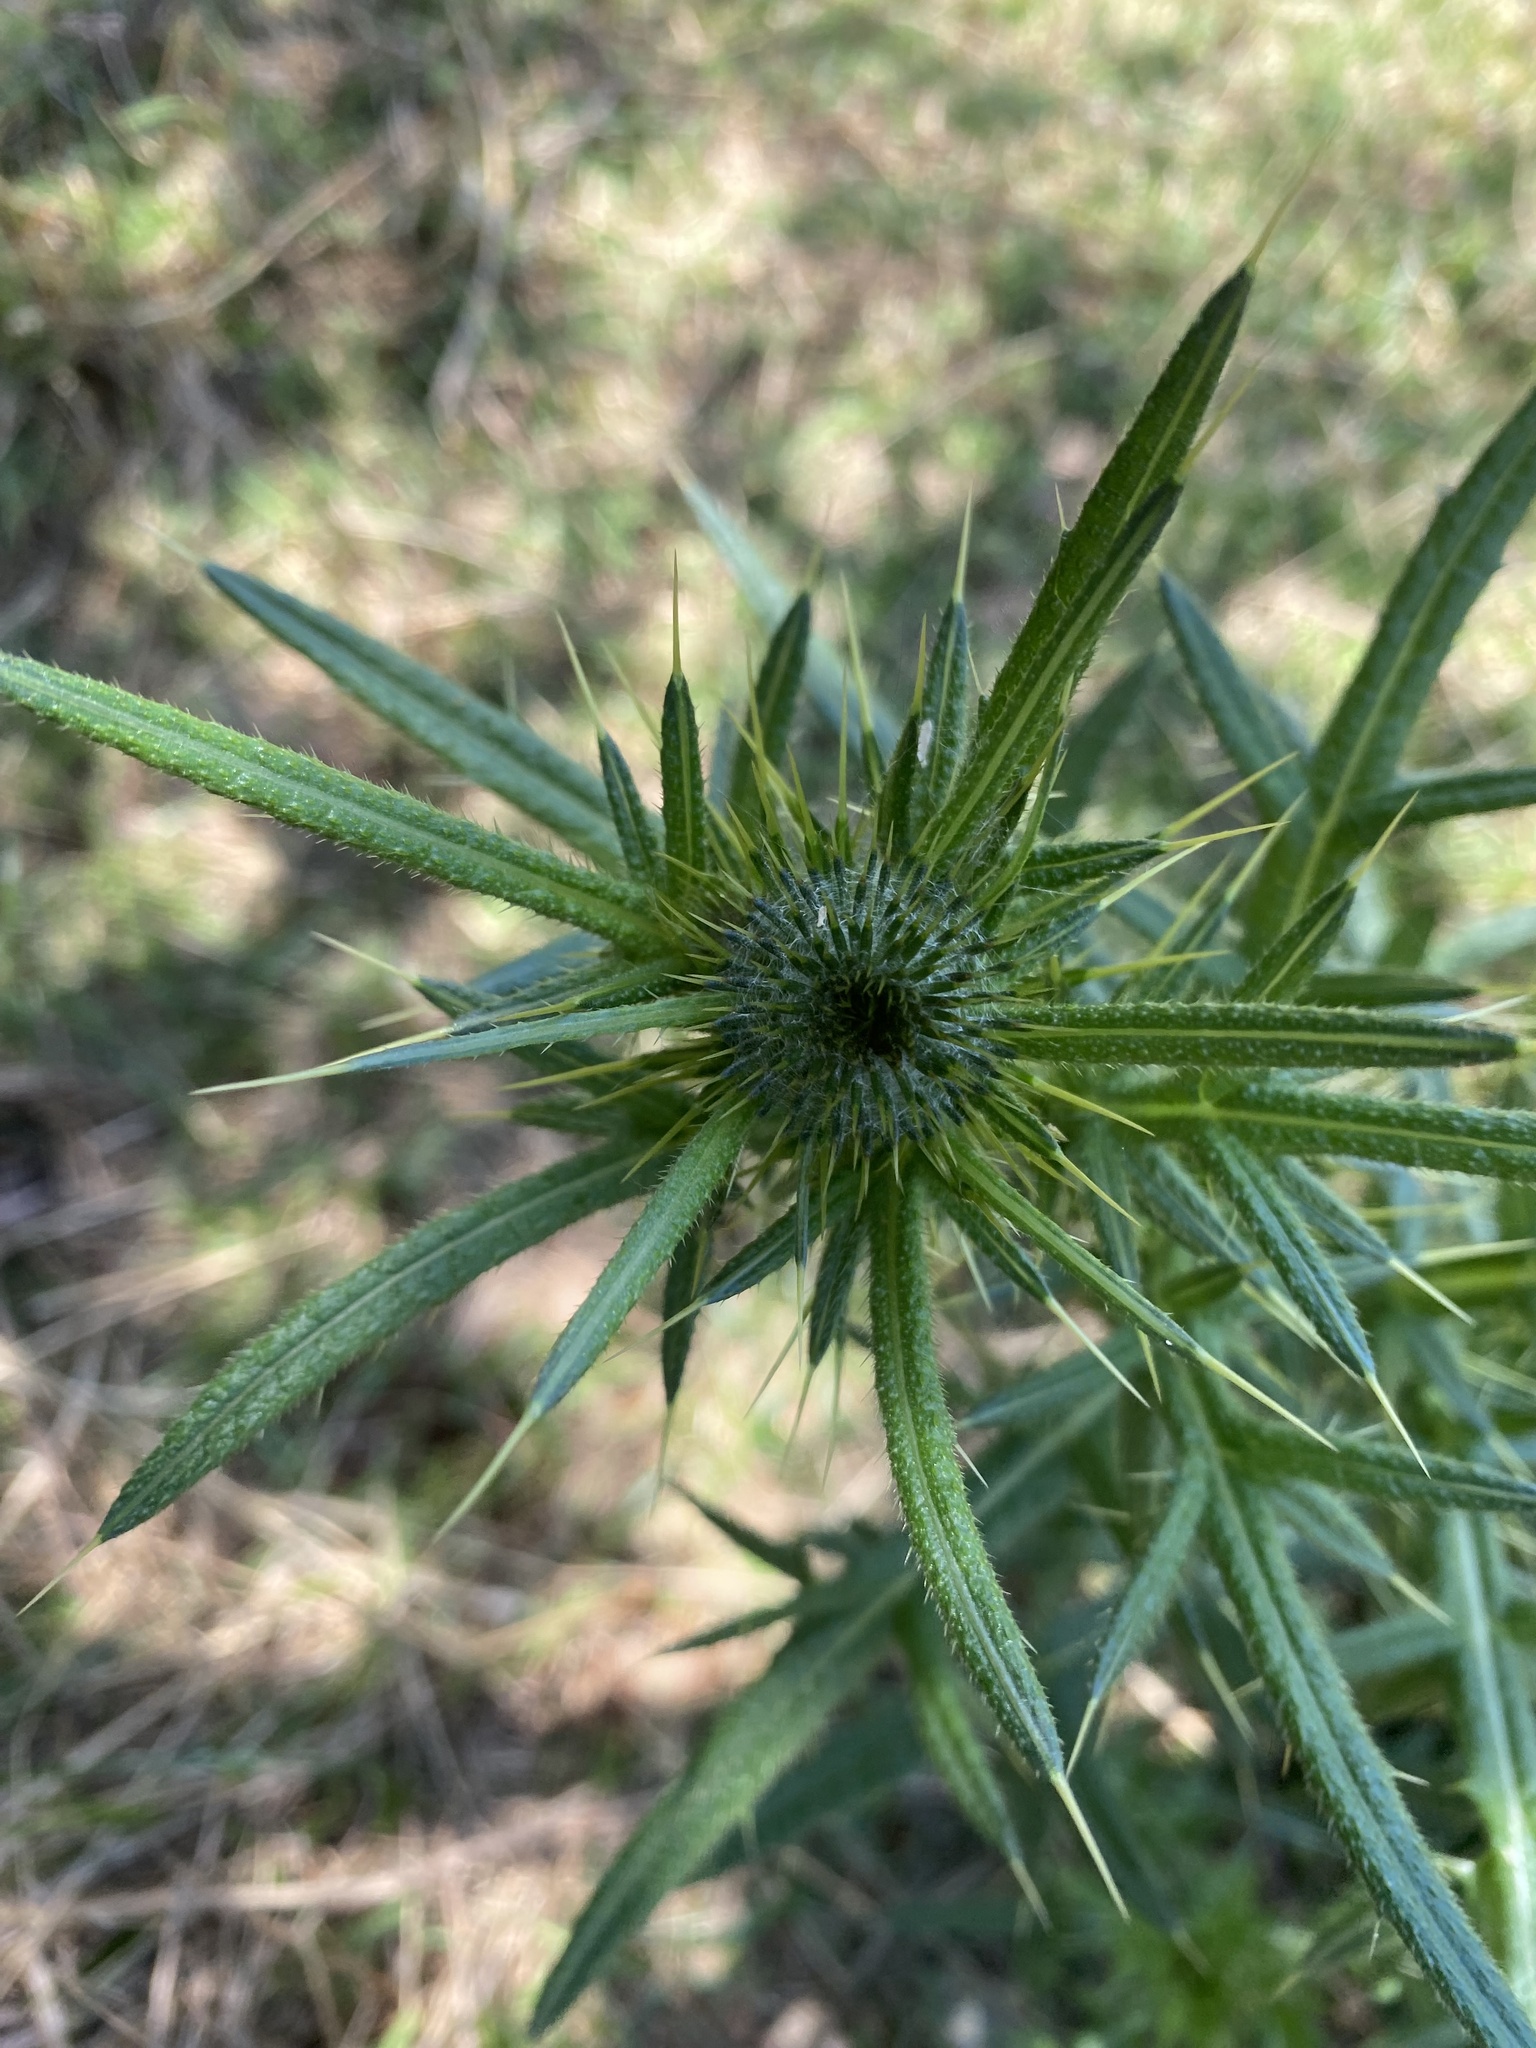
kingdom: Plantae
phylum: Tracheophyta
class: Magnoliopsida
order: Asterales
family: Asteraceae
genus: Cirsium
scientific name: Cirsium vulgare
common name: Bull thistle
